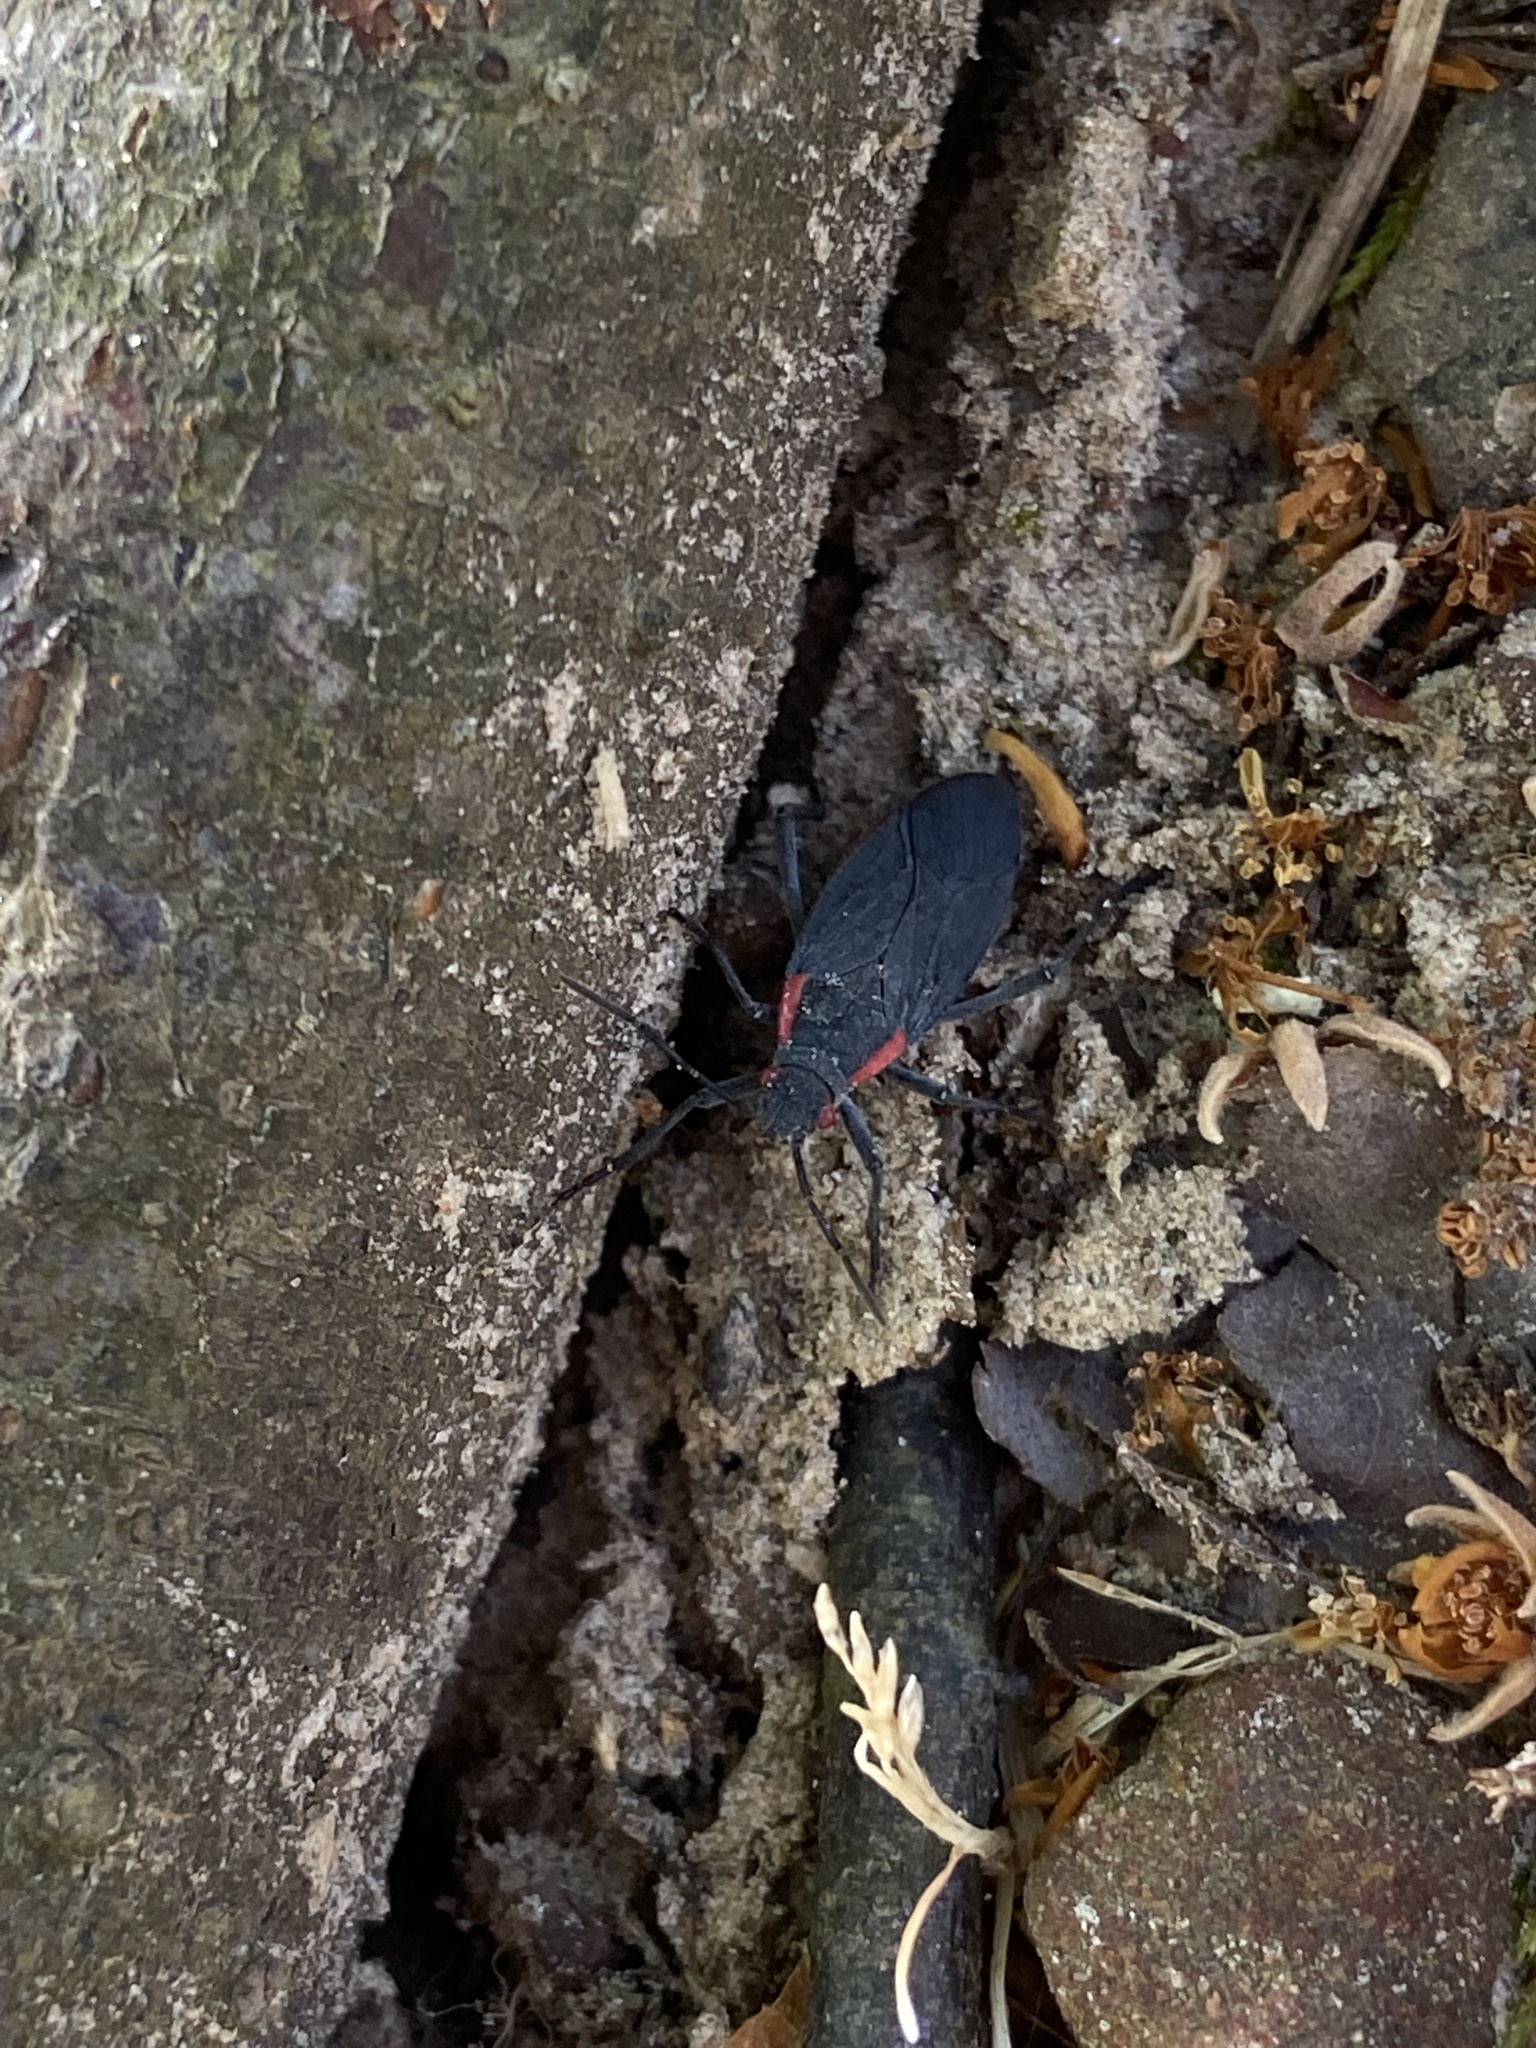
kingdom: Animalia
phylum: Arthropoda
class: Insecta
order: Hemiptera
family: Rhopalidae
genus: Jadera
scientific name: Jadera haematoloma
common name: Red-shouldered bug
